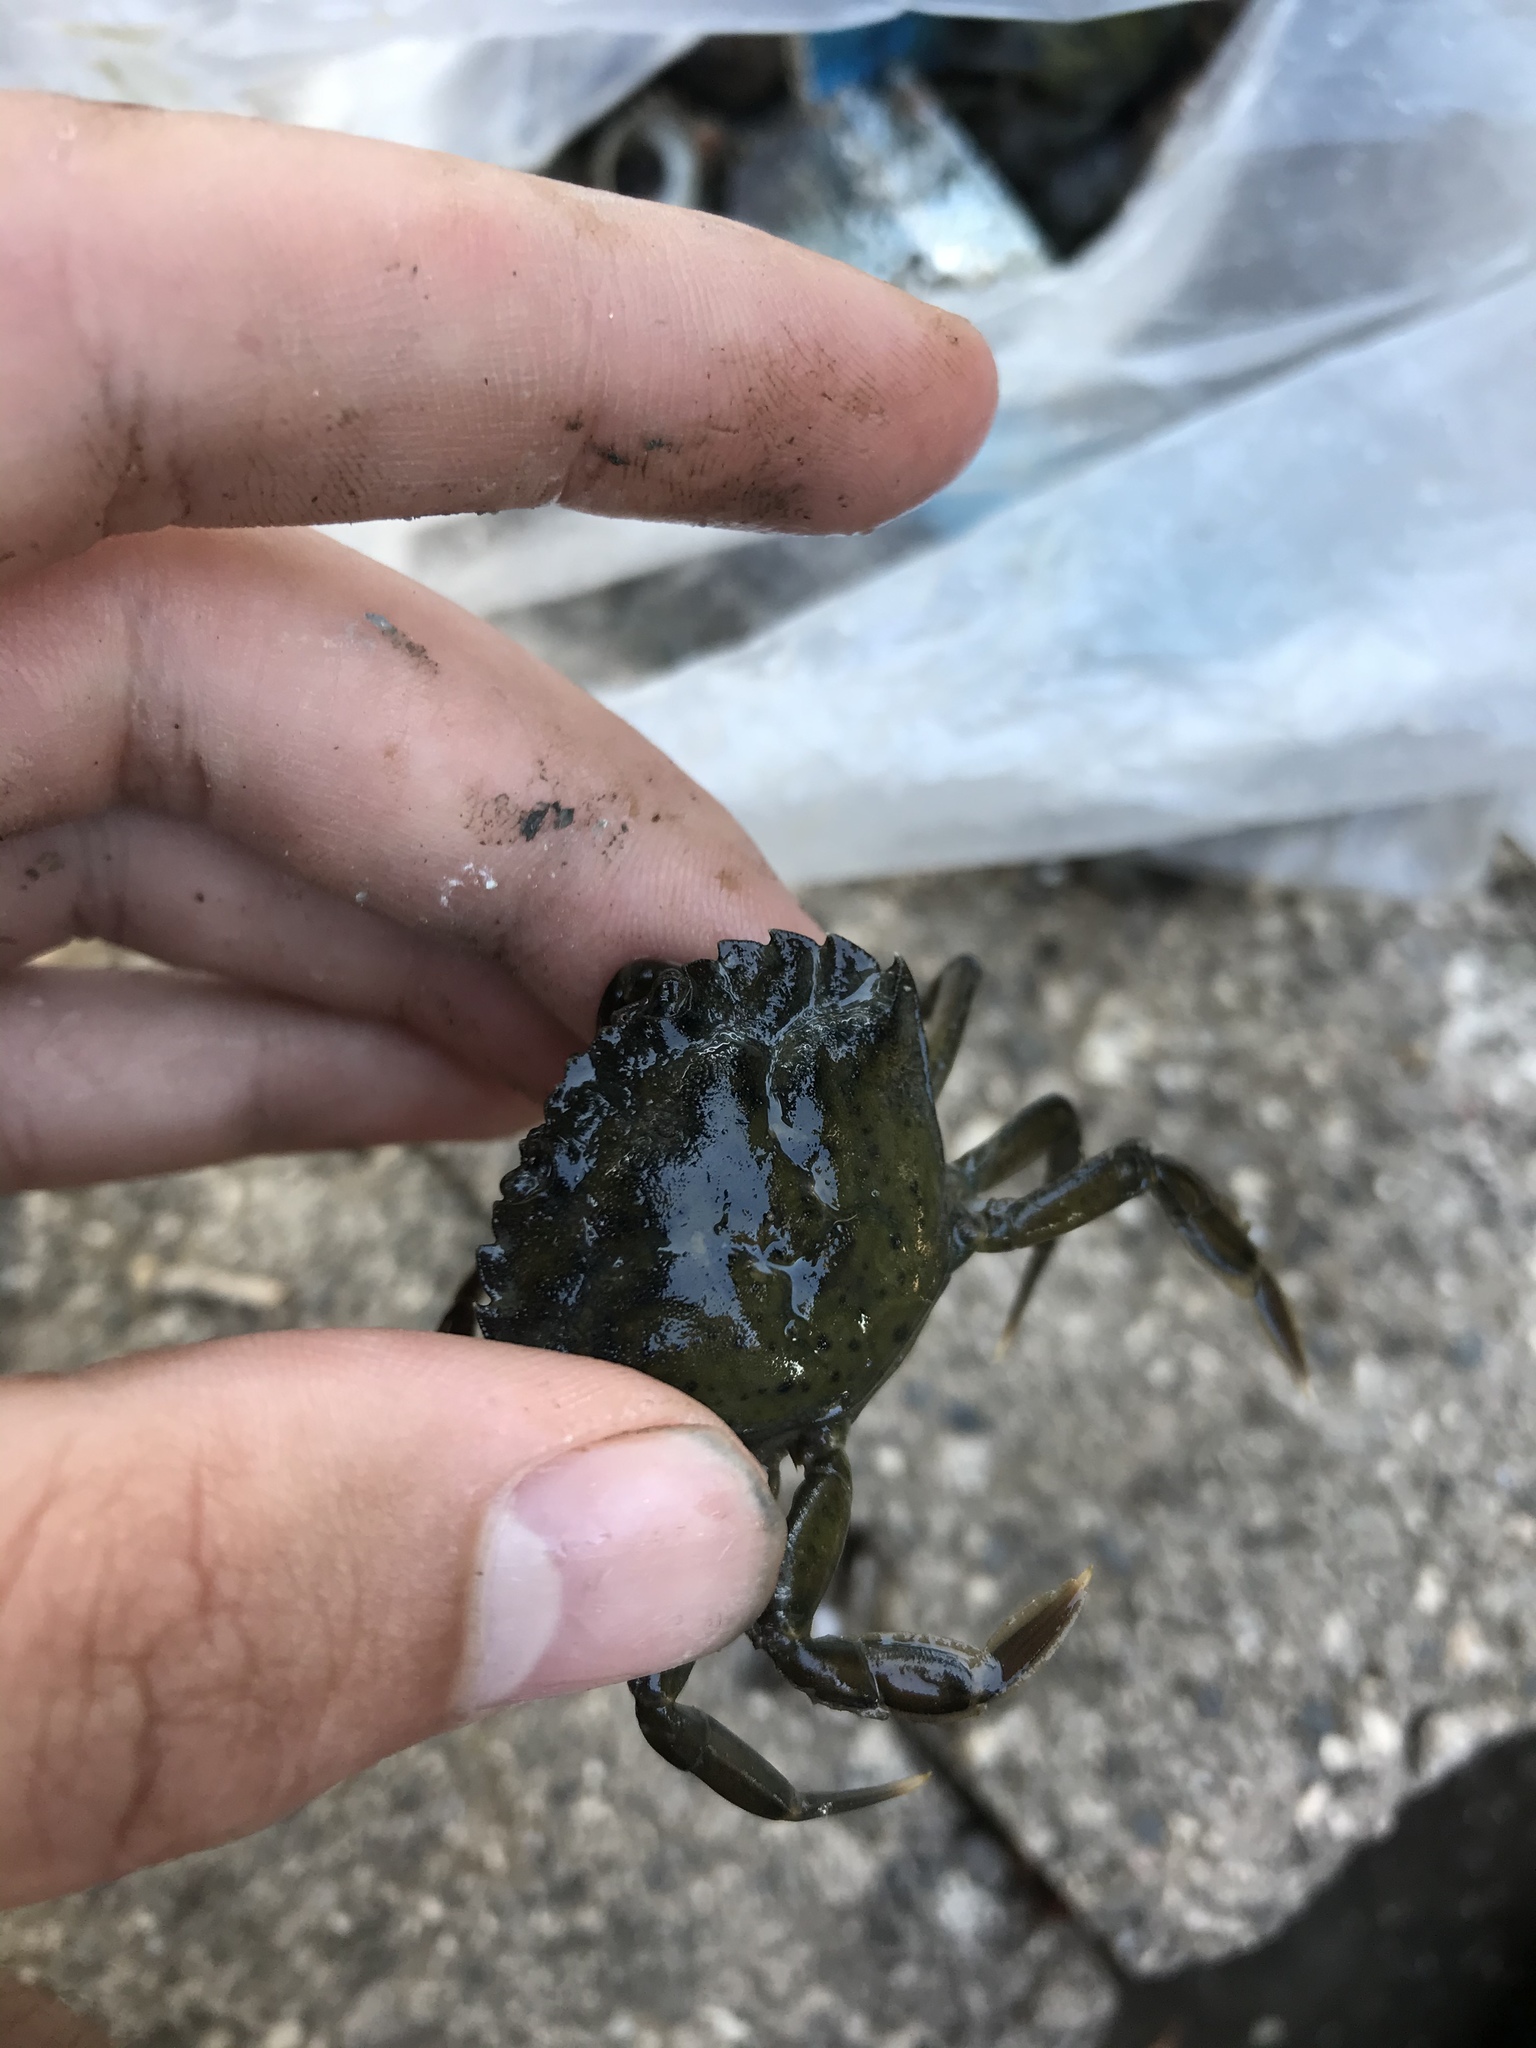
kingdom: Animalia
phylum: Arthropoda
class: Malacostraca
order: Decapoda
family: Carcinidae
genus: Carcinus
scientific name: Carcinus maenas
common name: European green crab
